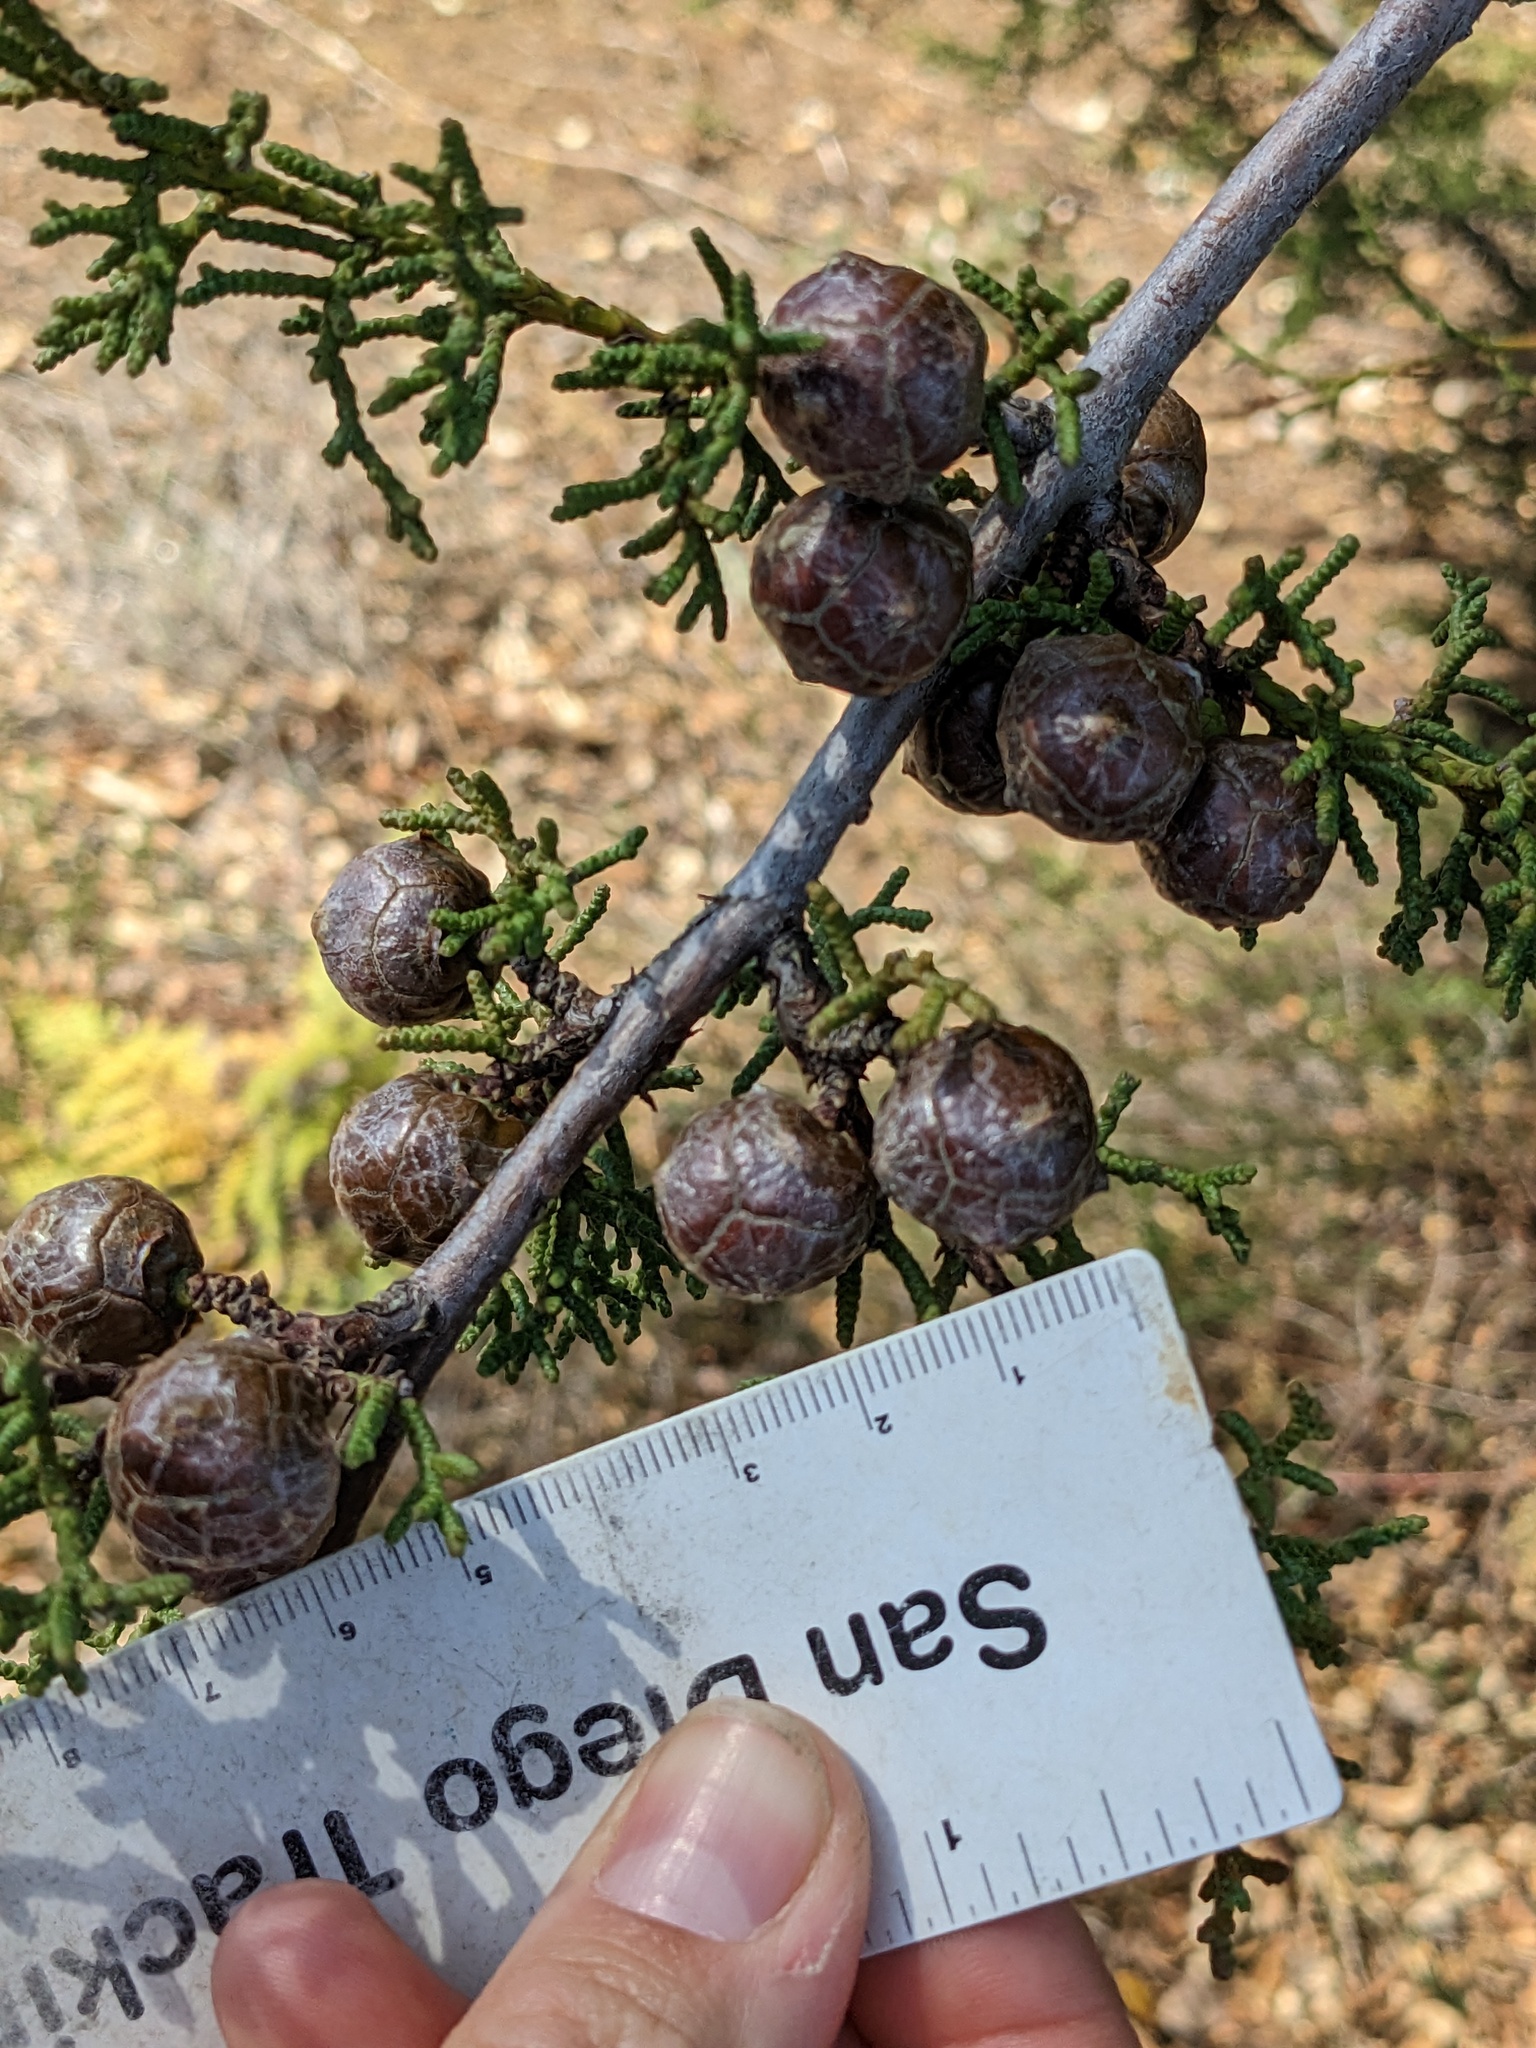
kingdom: Plantae
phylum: Tracheophyta
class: Pinopsida
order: Pinales
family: Cupressaceae
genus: Cupressus
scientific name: Cupressus goveniana
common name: Gowen cypress
